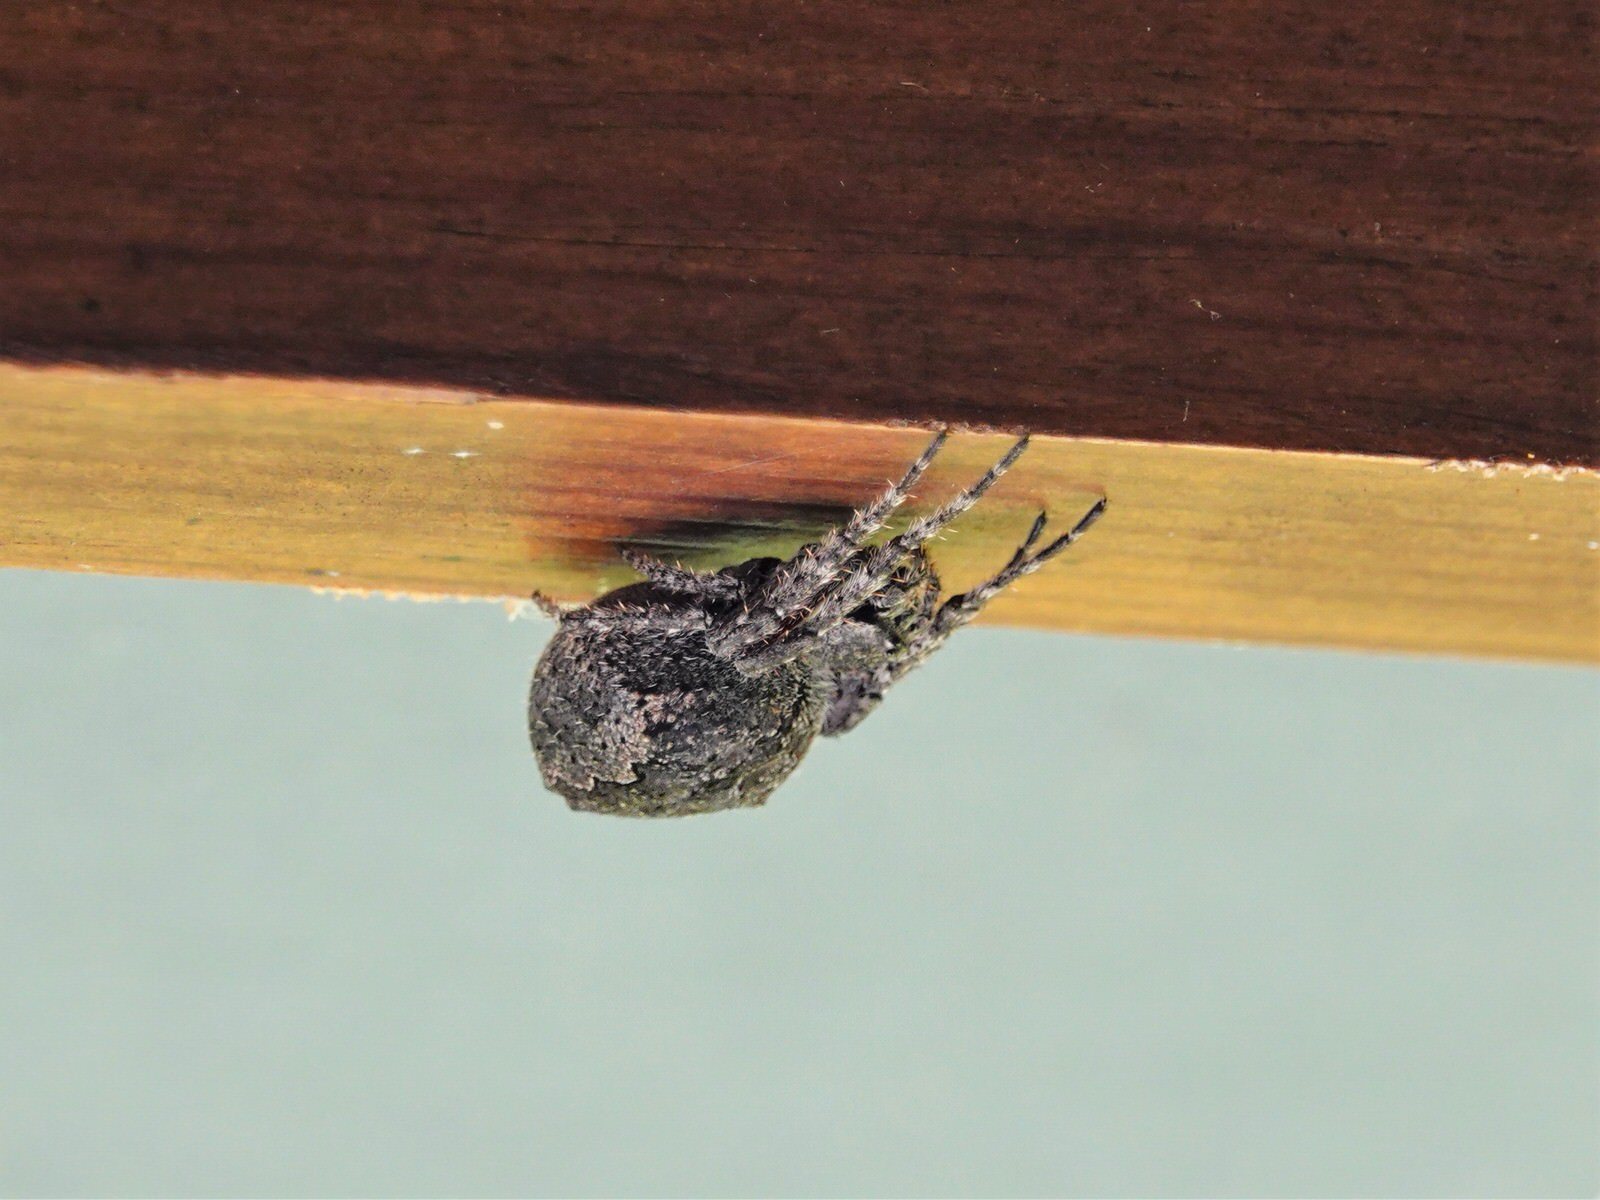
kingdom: Animalia
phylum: Arthropoda
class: Arachnida
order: Araneae
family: Araneidae
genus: Eriophora
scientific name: Eriophora pustulosa
